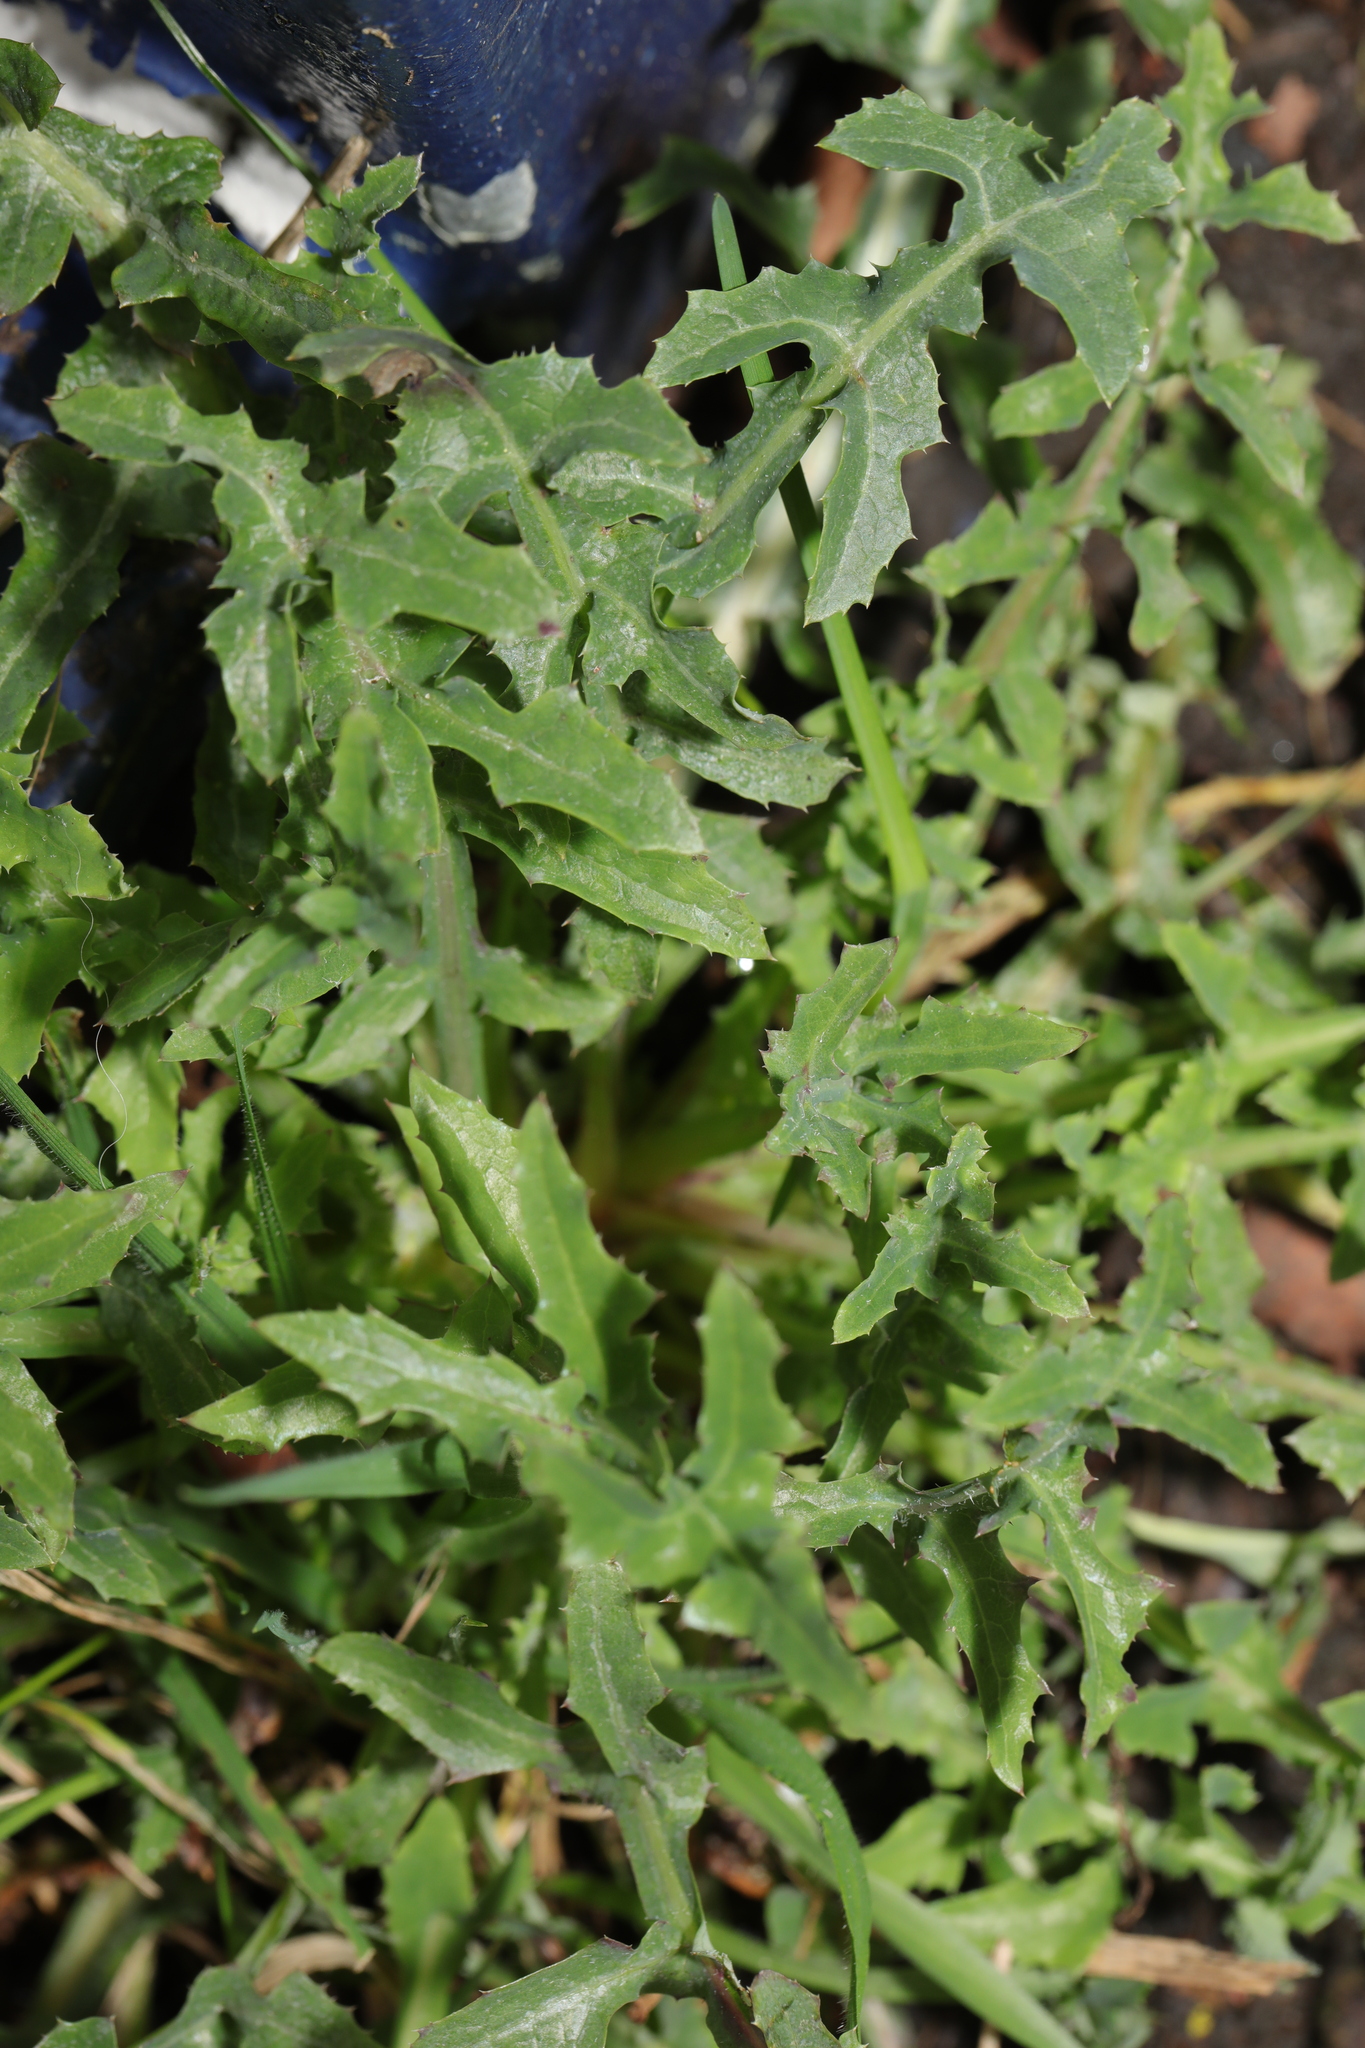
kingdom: Plantae
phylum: Tracheophyta
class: Magnoliopsida
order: Asterales
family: Asteraceae
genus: Sonchus
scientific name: Sonchus oleraceus
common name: Common sowthistle
